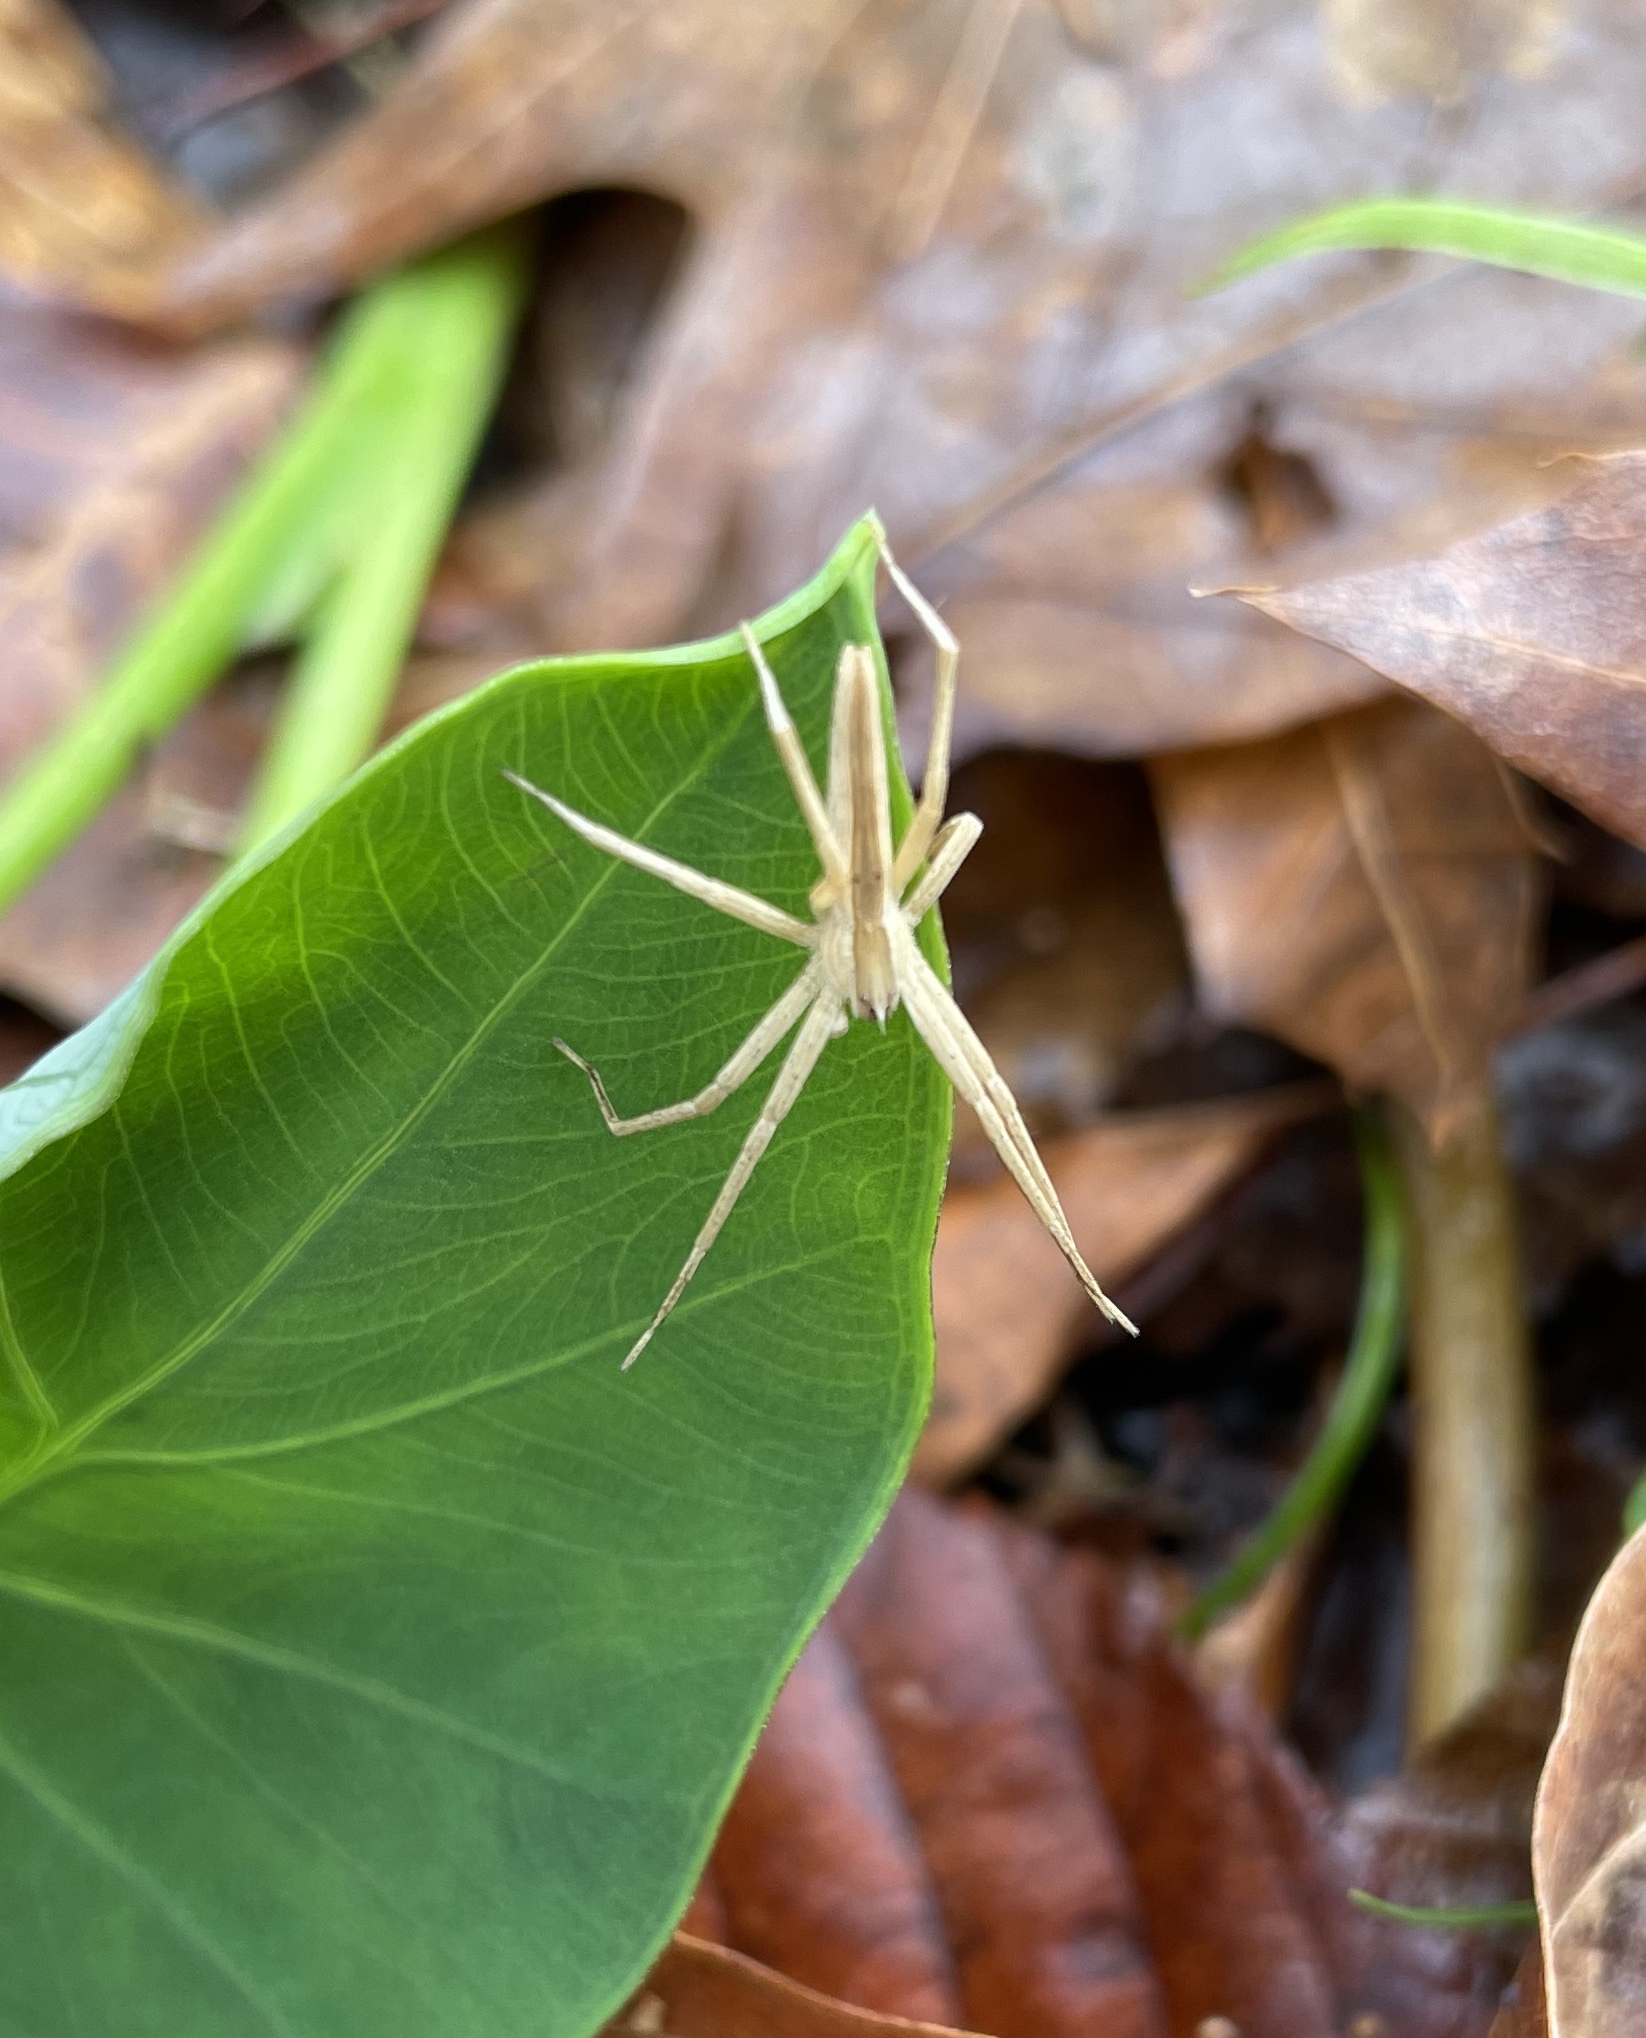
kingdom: Animalia
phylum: Arthropoda
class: Arachnida
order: Araneae
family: Pisauridae
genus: Pisaurina
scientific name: Pisaurina dubia
